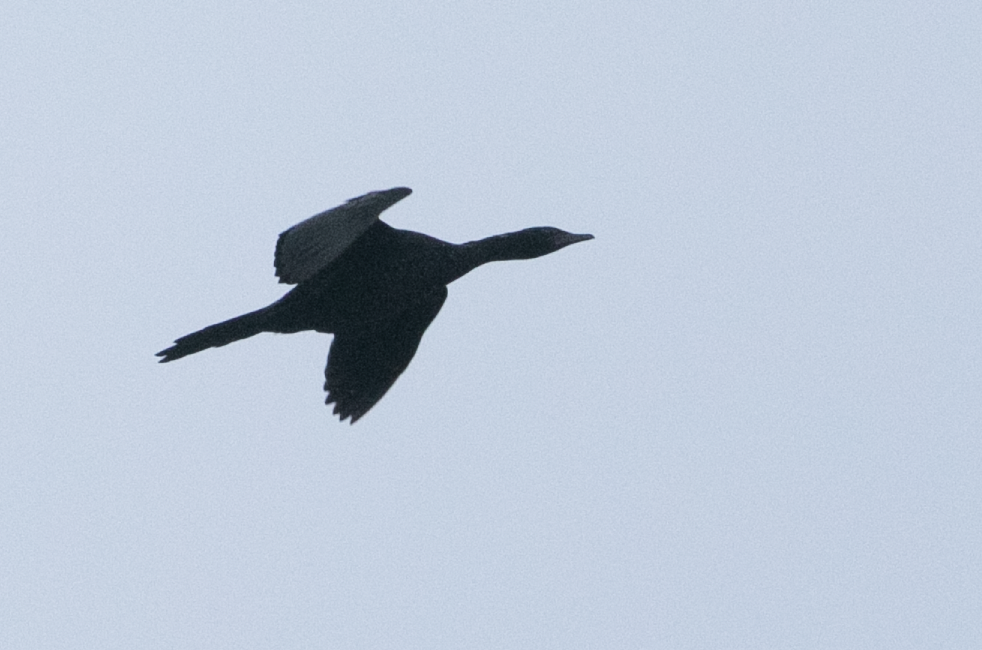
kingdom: Animalia
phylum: Chordata
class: Aves
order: Suliformes
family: Phalacrocoracidae
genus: Microcarbo
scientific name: Microcarbo pygmaeus
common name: Pygmy cormorant
